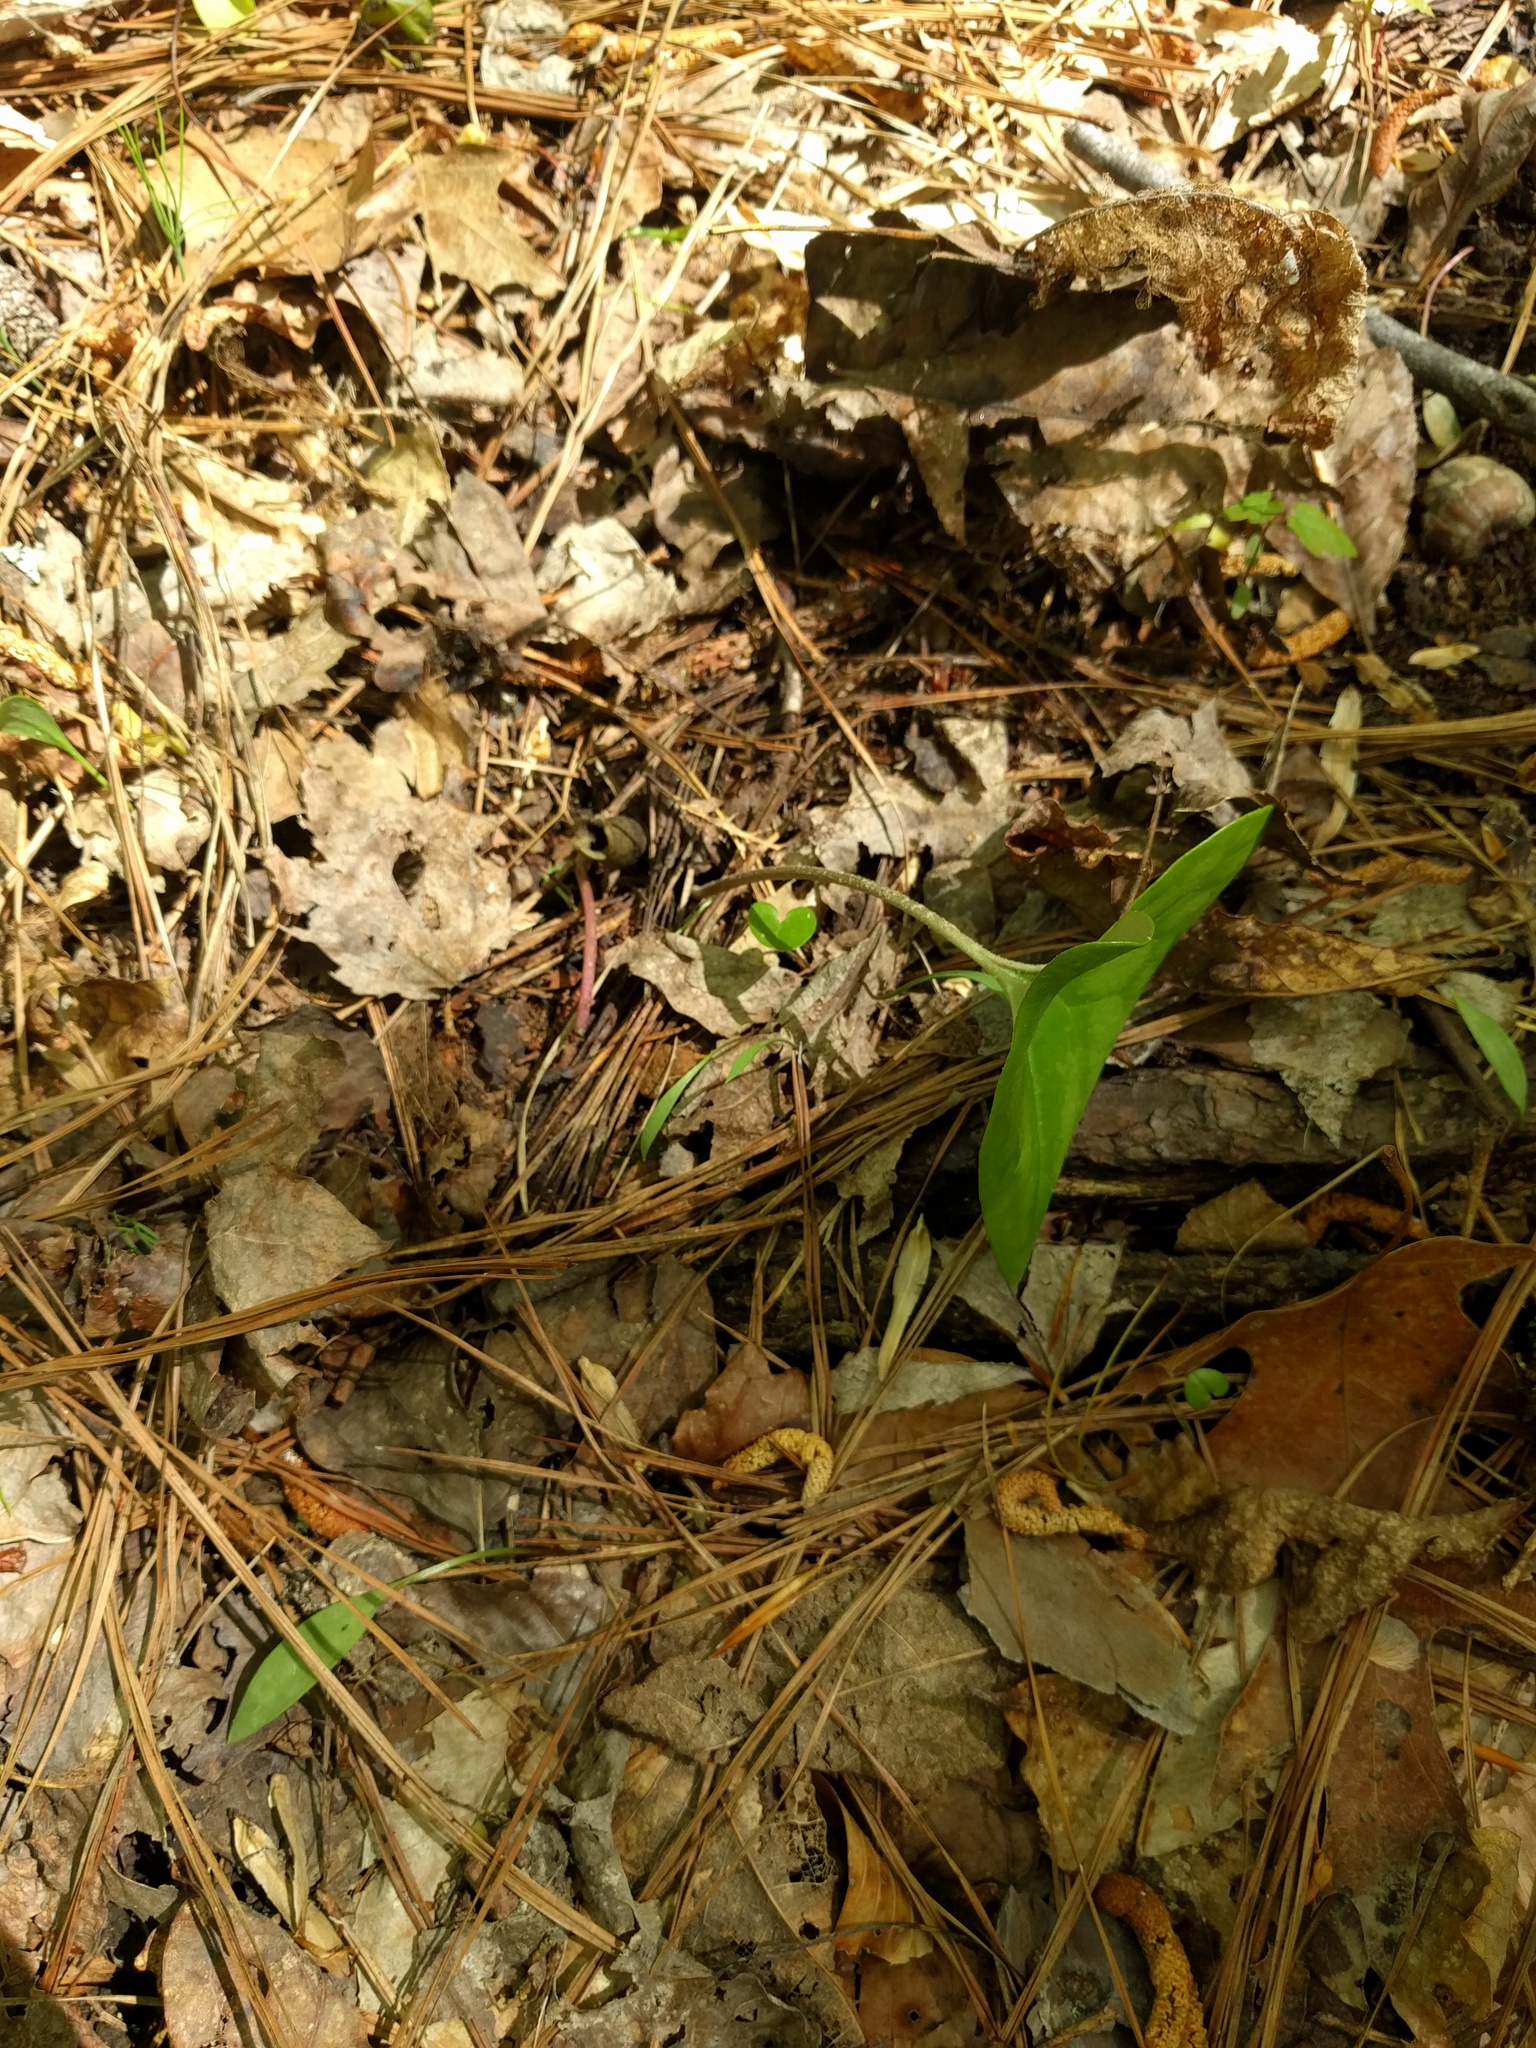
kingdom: Plantae
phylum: Tracheophyta
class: Magnoliopsida
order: Piperales
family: Aristolochiaceae
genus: Hexastylis
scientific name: Hexastylis arifolia
